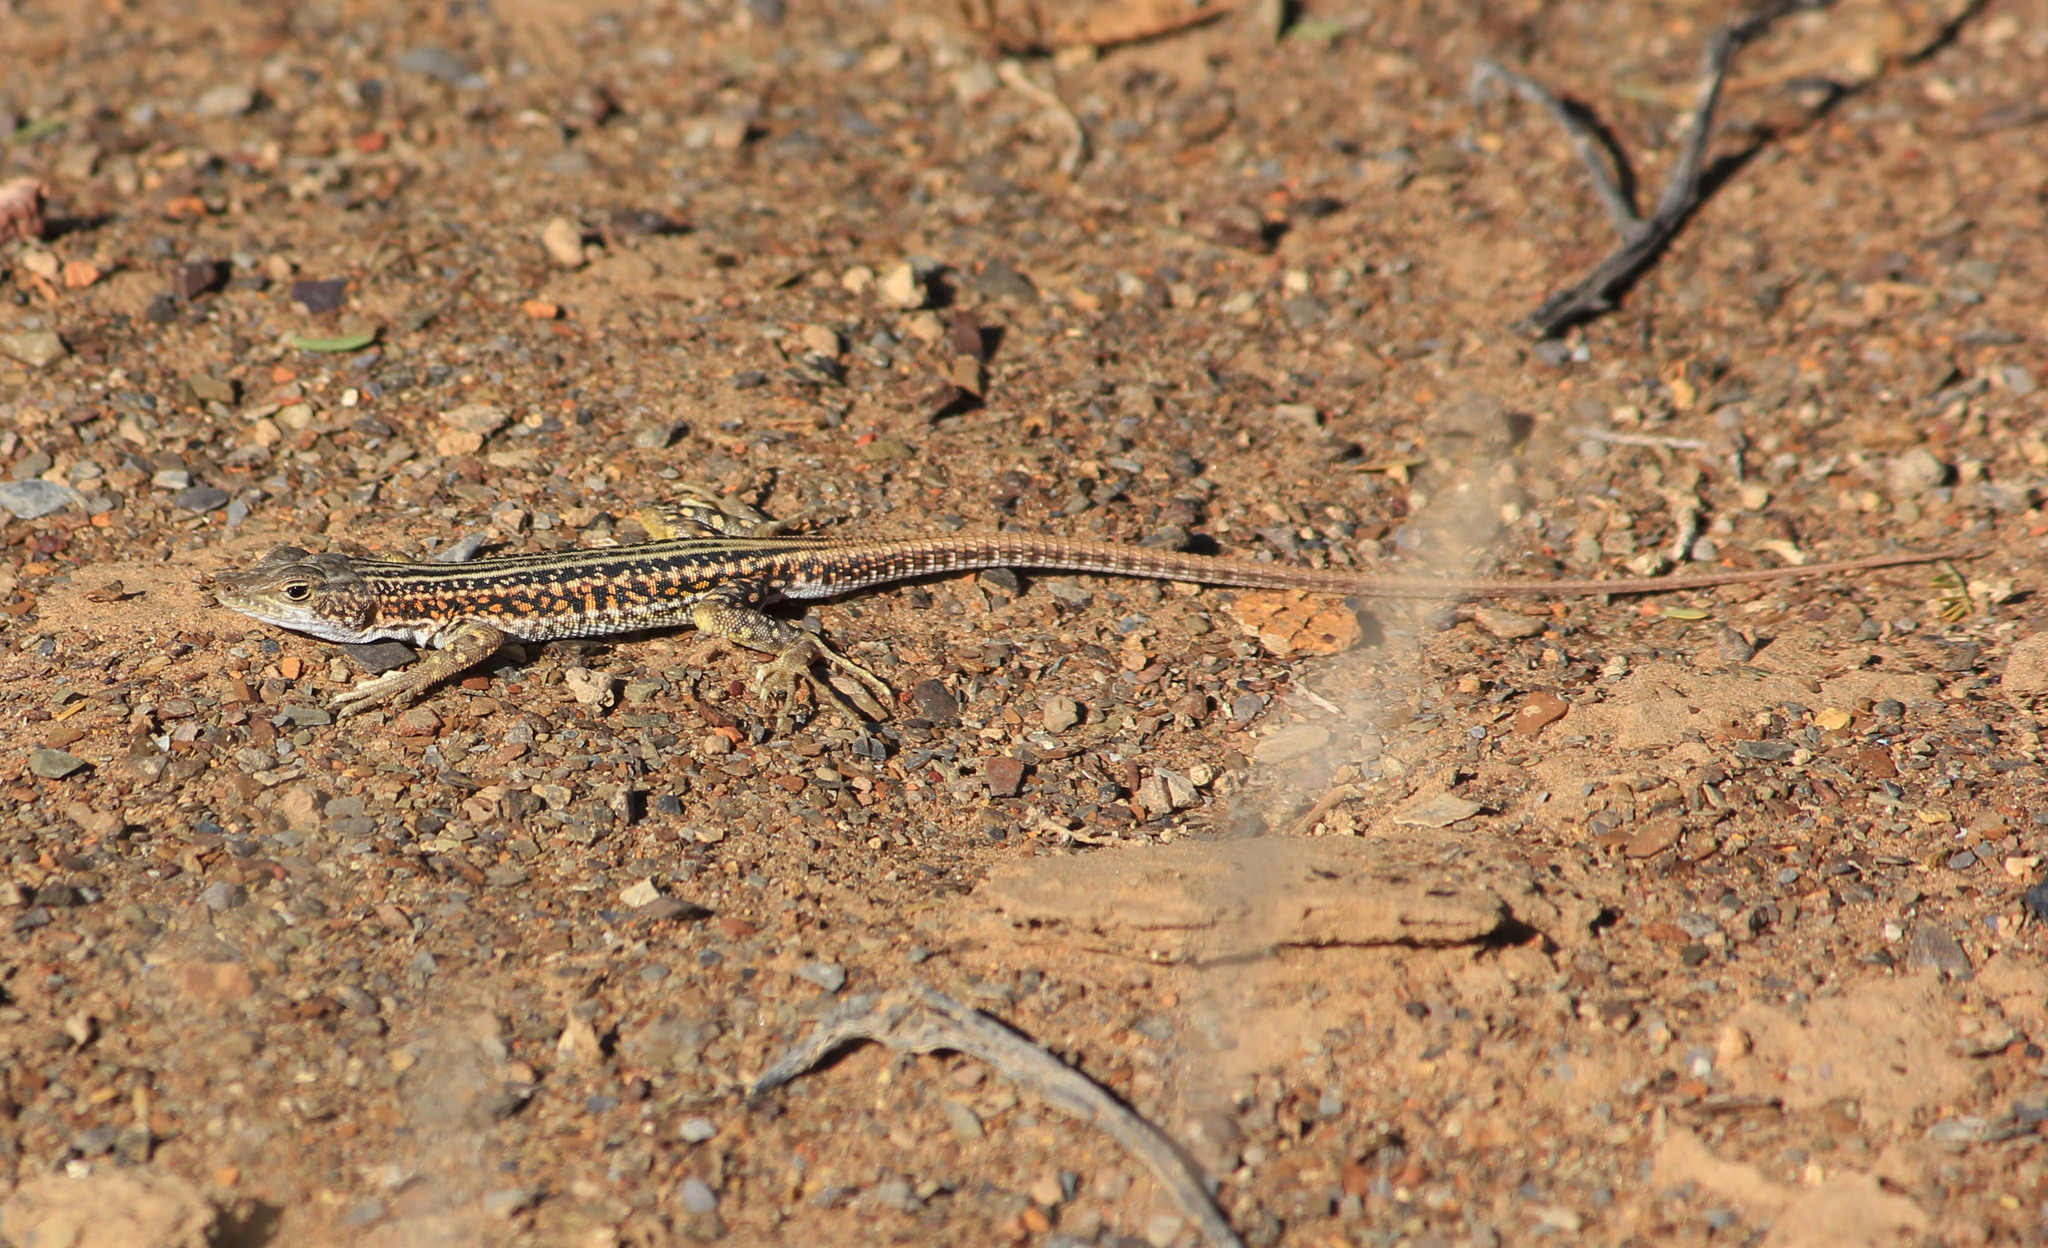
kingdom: Animalia
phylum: Chordata
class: Squamata
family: Lacertidae
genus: Pedioplanis
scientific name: Pedioplanis laticeps
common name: Karoo sand lizard
